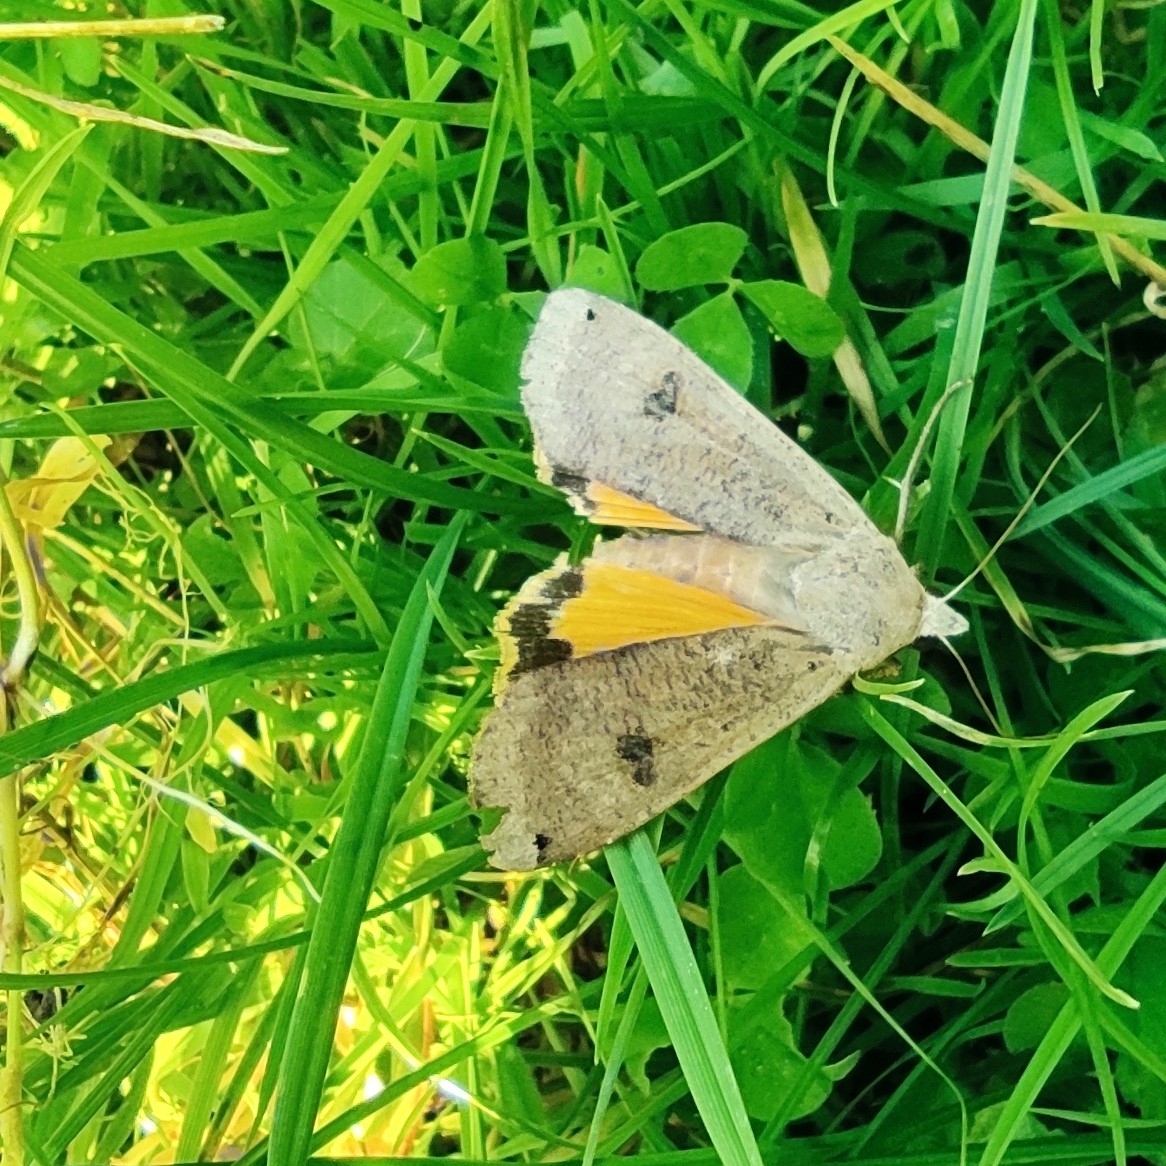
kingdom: Animalia
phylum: Arthropoda
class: Insecta
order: Lepidoptera
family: Noctuidae
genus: Noctua
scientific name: Noctua pronuba
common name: Large yellow underwing
